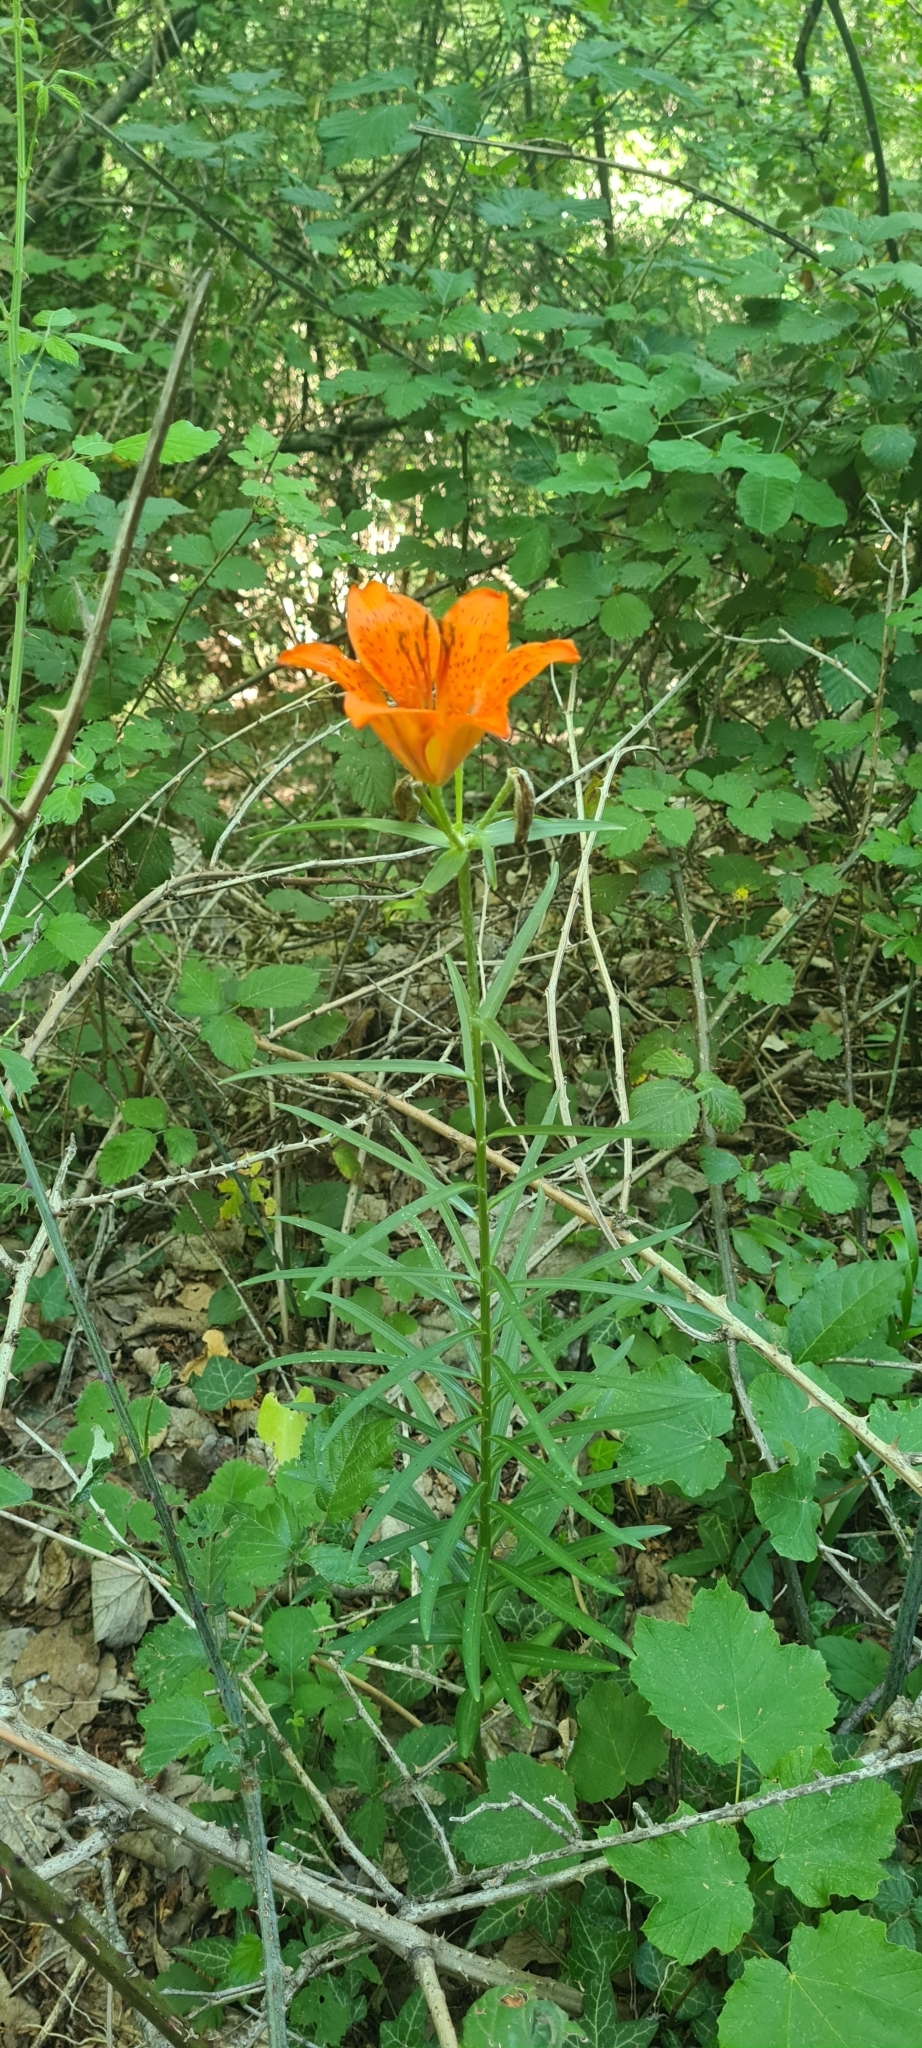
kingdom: Plantae
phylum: Tracheophyta
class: Liliopsida
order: Liliales
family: Liliaceae
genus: Lilium
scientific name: Lilium bulbiferum
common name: Orange lily
